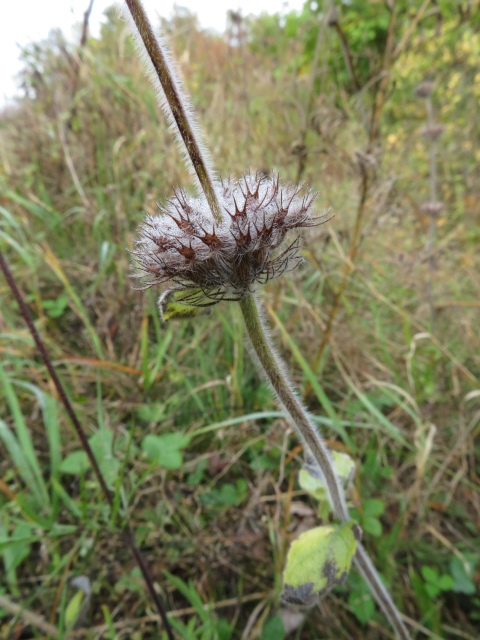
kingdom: Plantae
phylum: Tracheophyta
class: Magnoliopsida
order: Lamiales
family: Lamiaceae
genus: Clinopodium
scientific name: Clinopodium vulgare
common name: Wild basil
